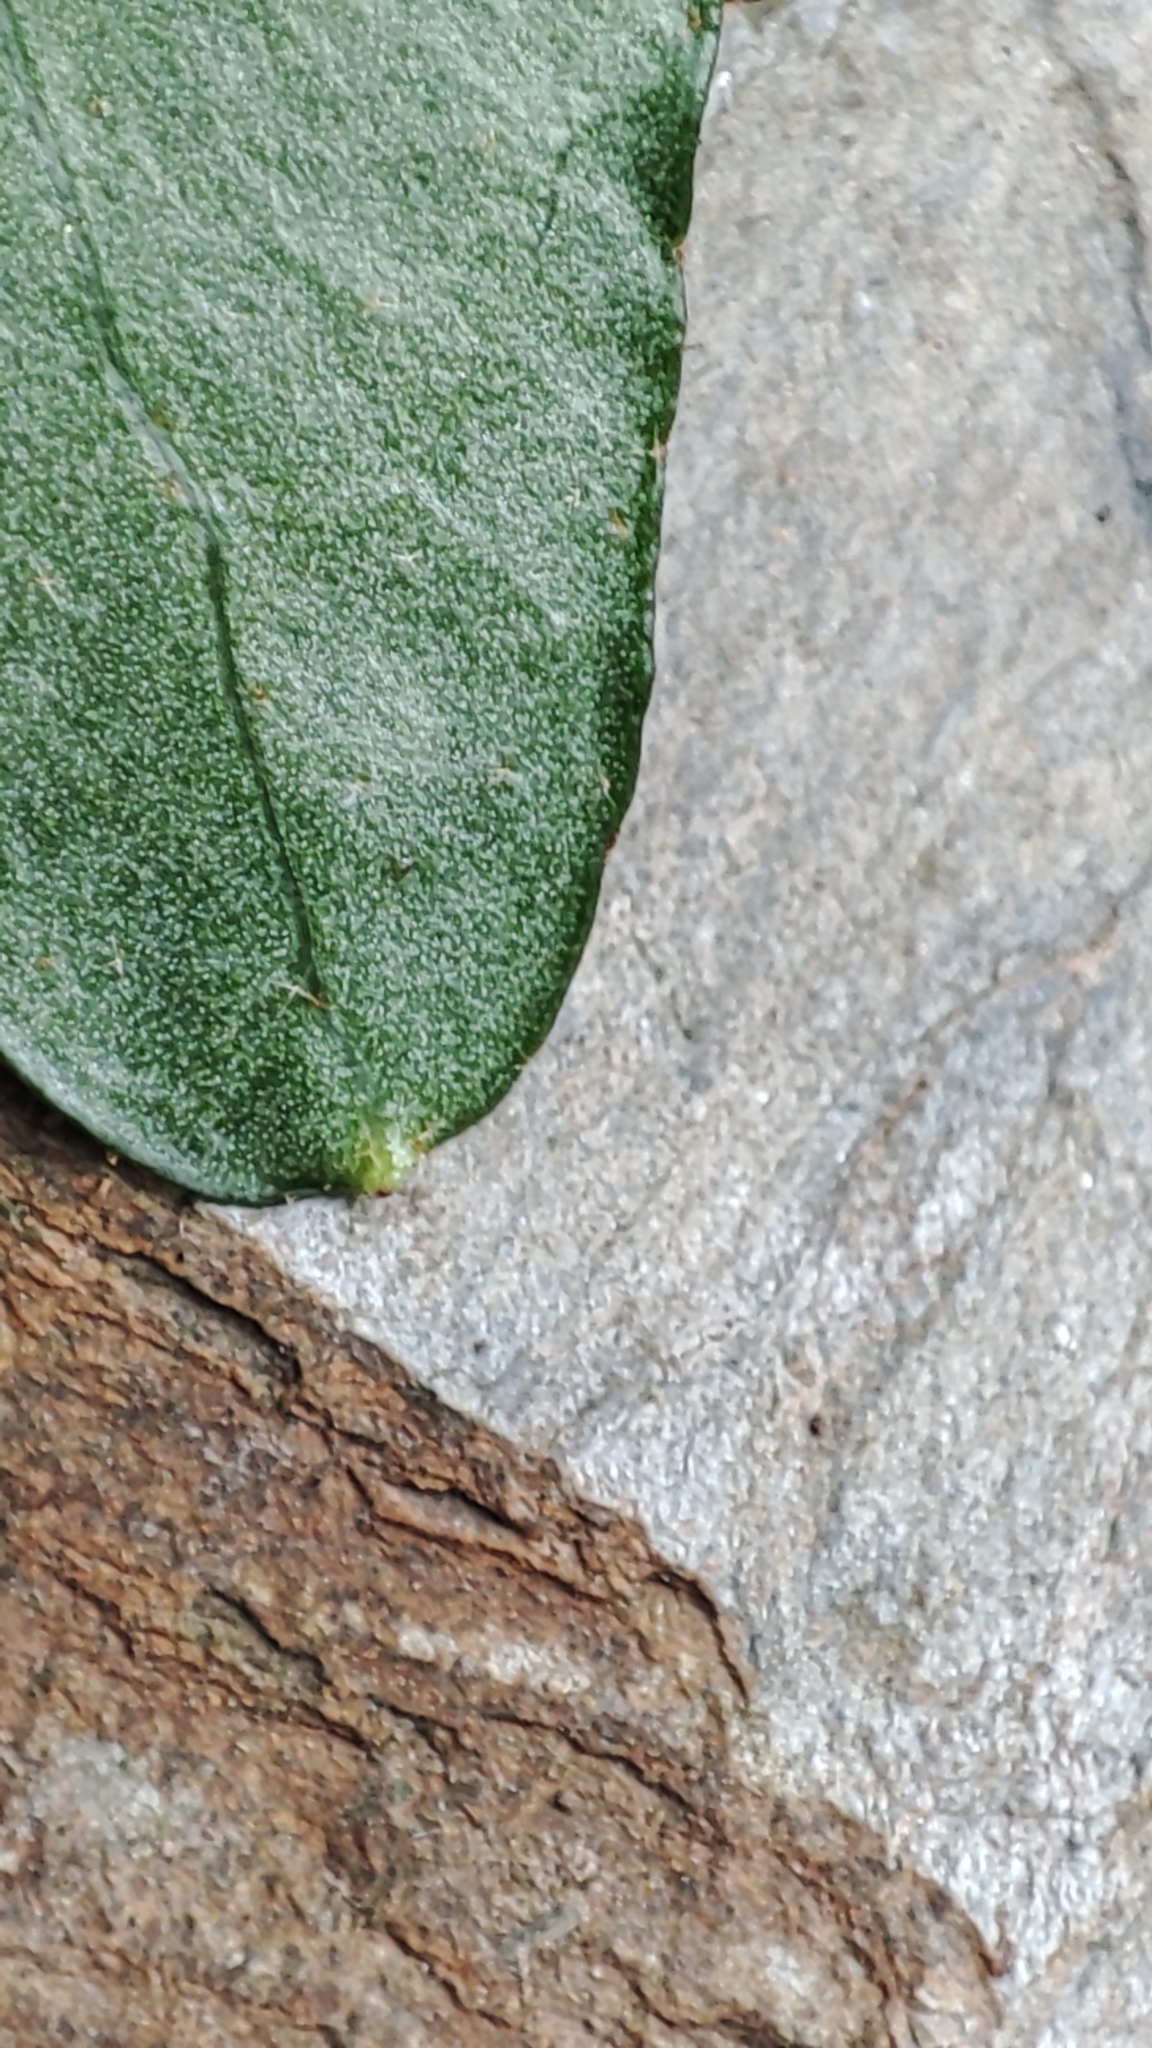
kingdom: Plantae
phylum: Tracheophyta
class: Magnoliopsida
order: Apiales
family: Araliaceae
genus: Hedera
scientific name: Hedera helix
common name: Ivy
